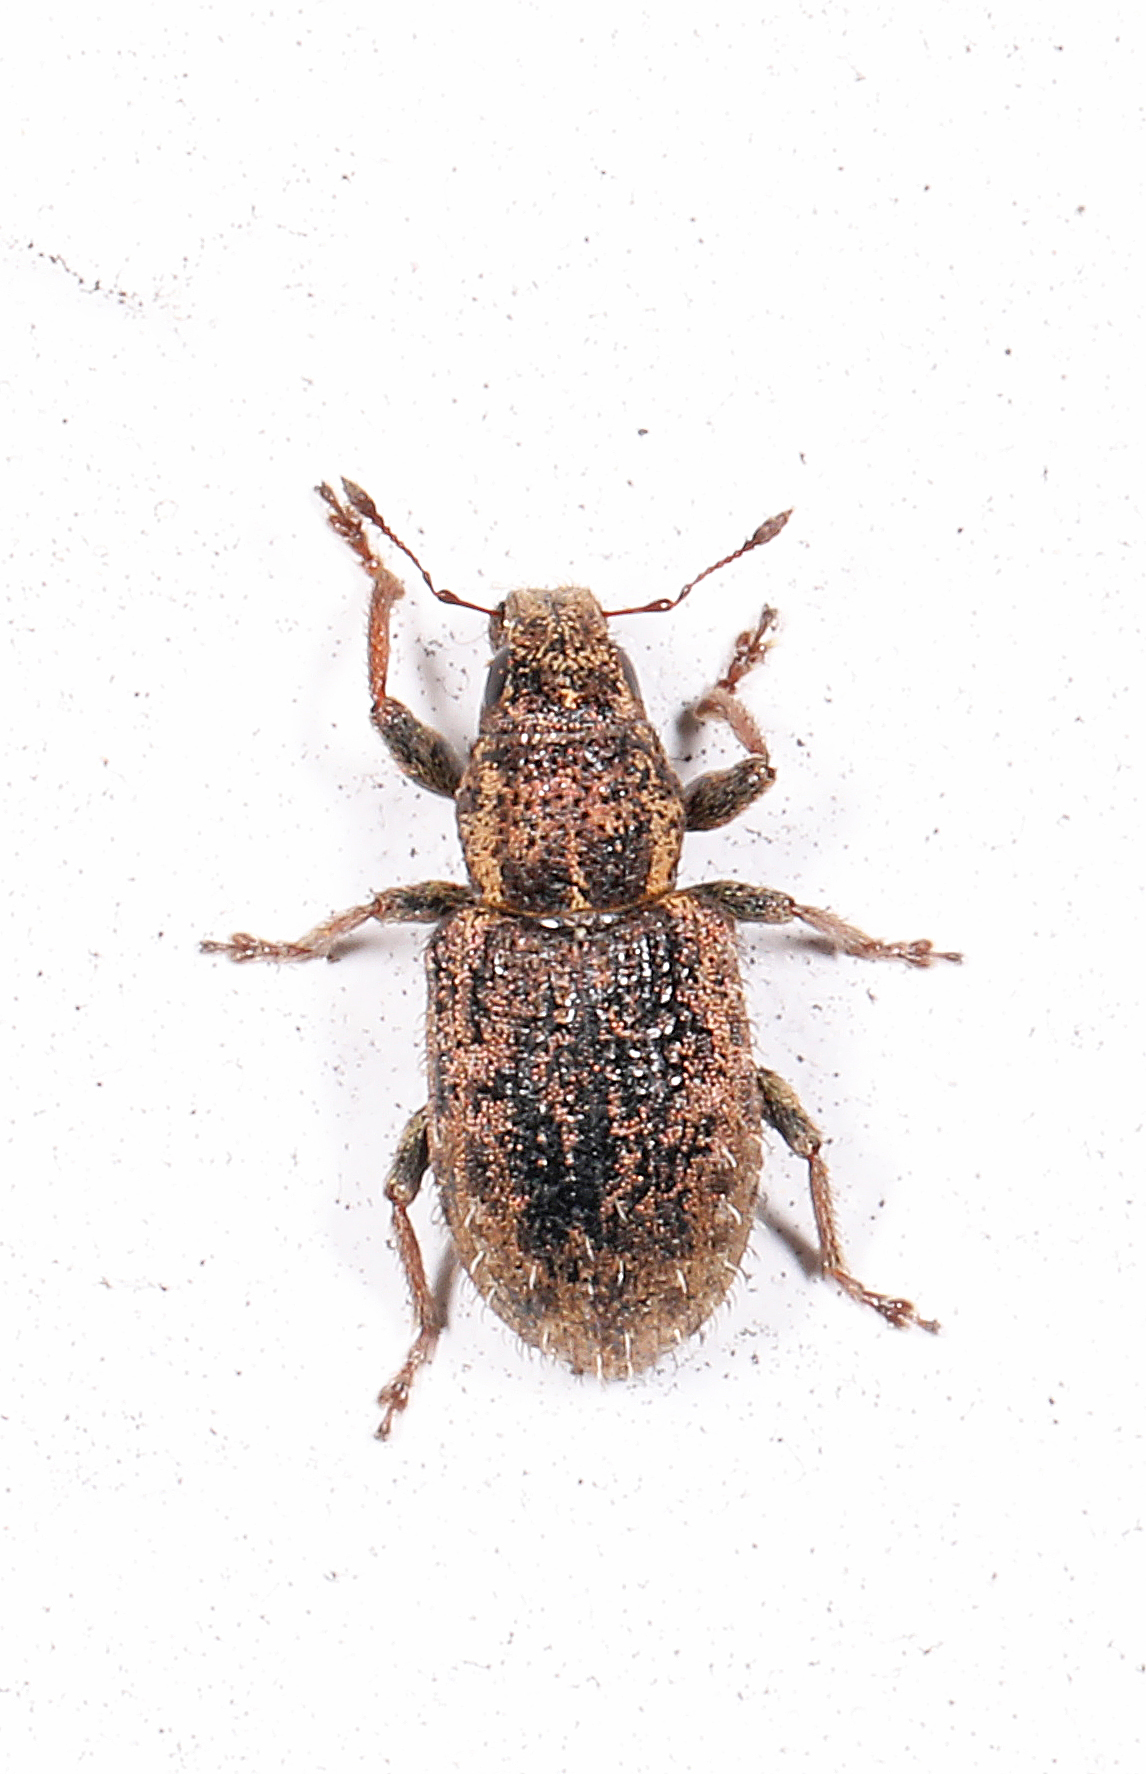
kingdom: Animalia
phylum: Arthropoda
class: Insecta
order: Coleoptera
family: Curculionidae
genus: Sitona
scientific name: Sitona hispidulus
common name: Clover weevil
